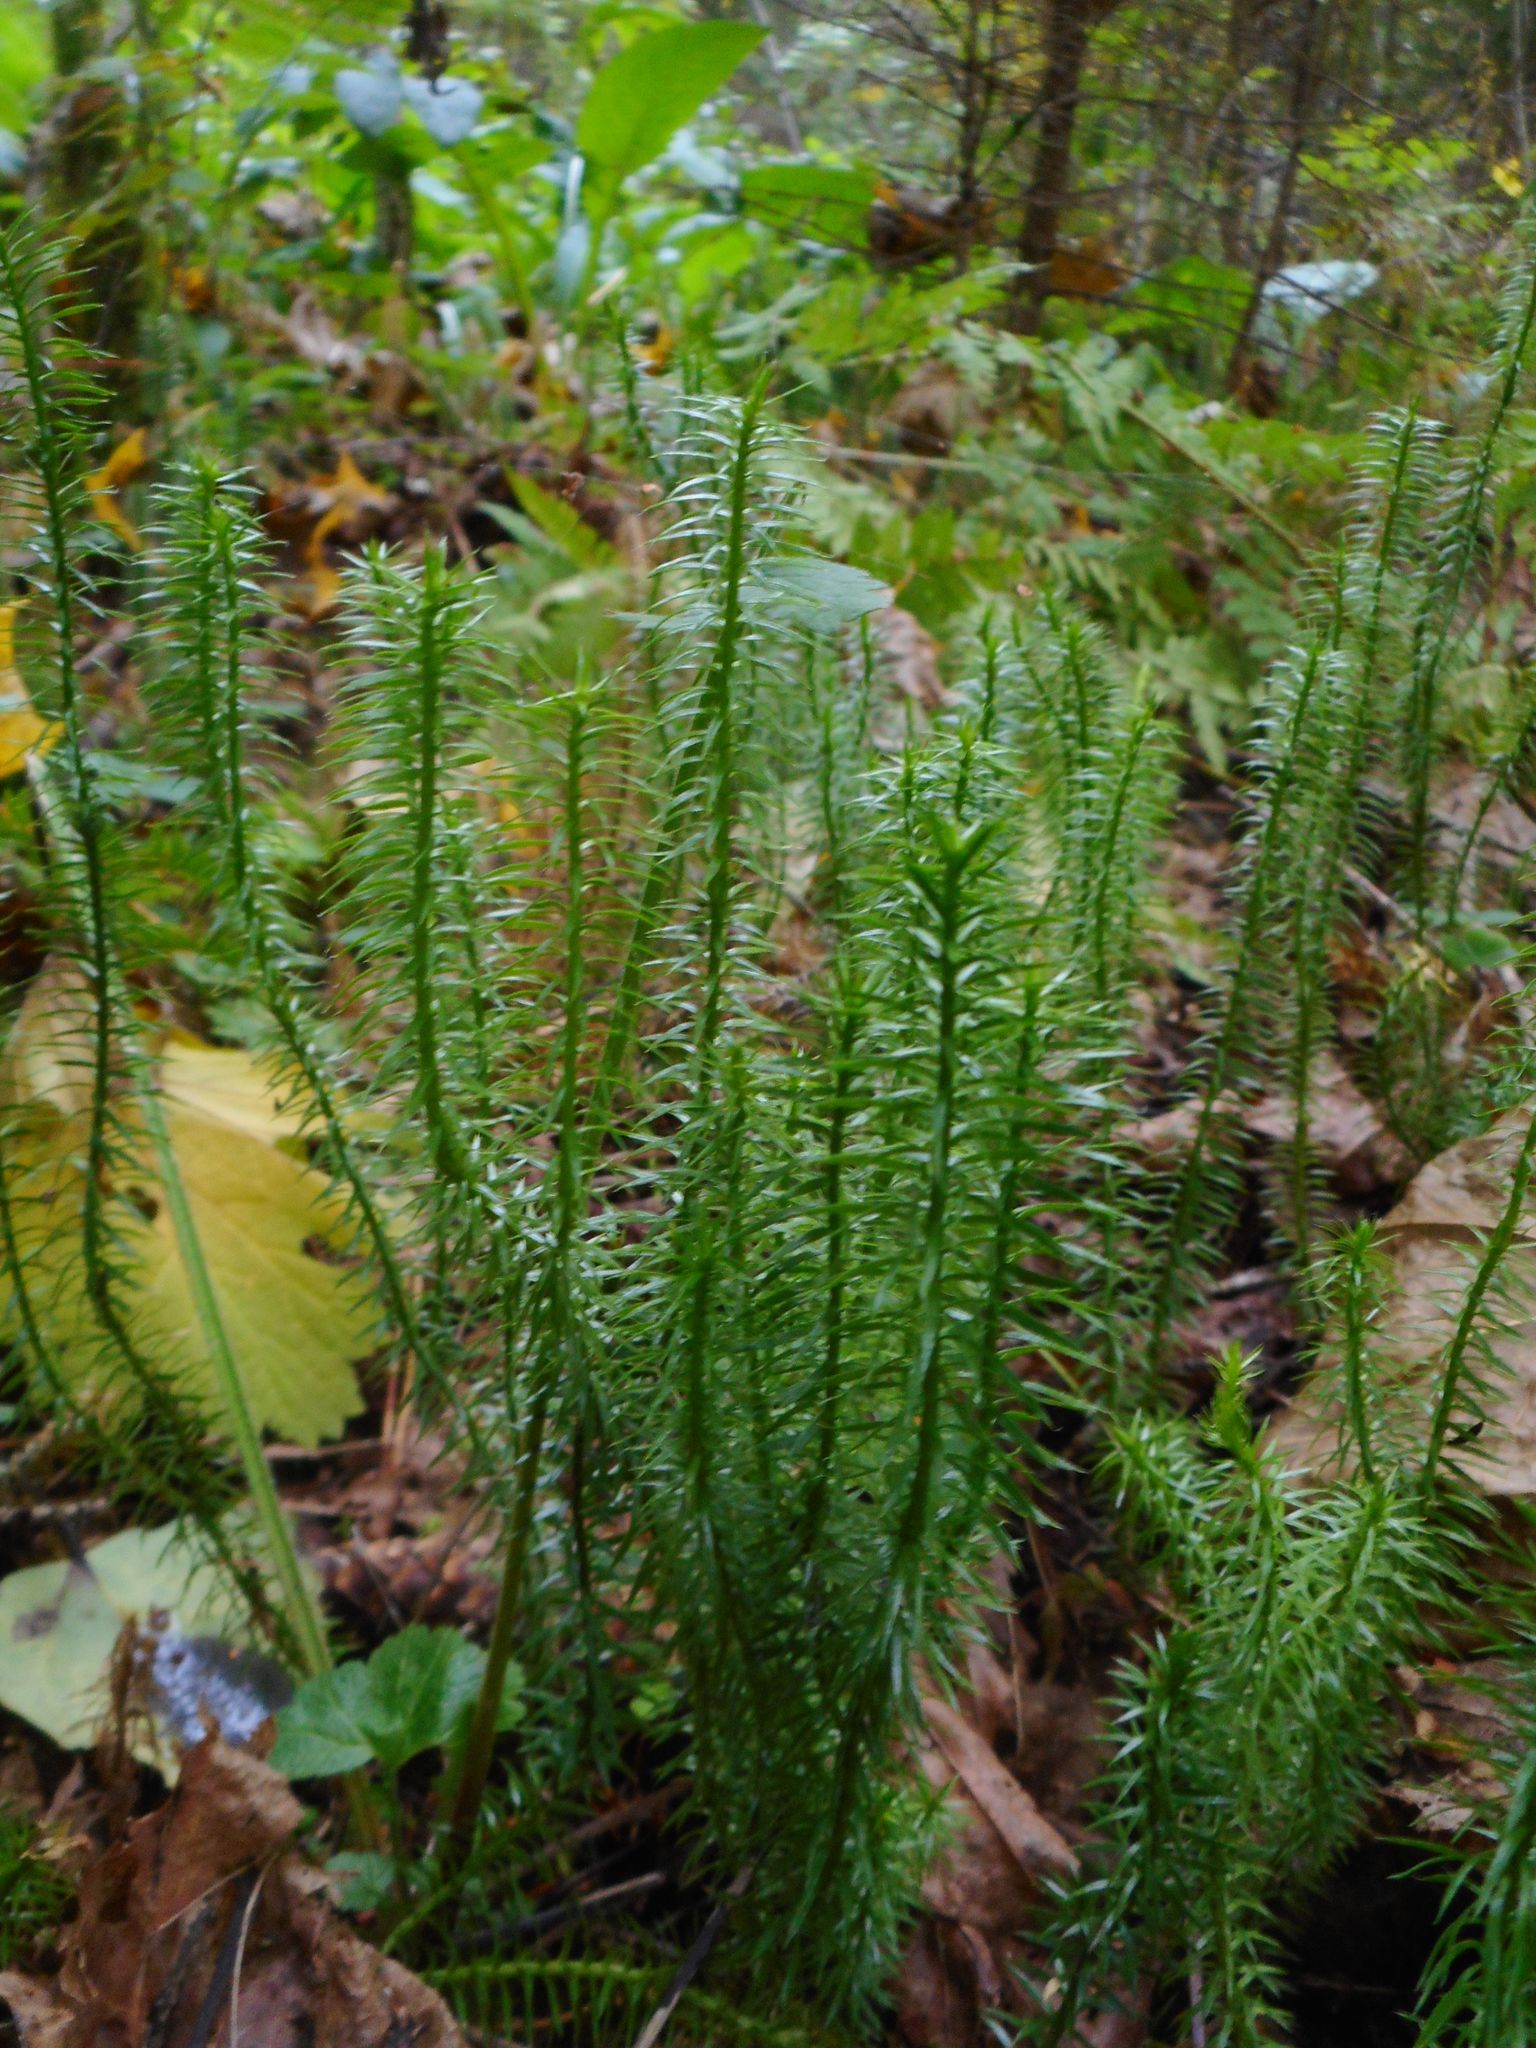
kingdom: Plantae
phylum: Tracheophyta
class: Lycopodiopsida
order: Lycopodiales
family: Lycopodiaceae
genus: Spinulum
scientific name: Spinulum annotinum
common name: Interrupted club-moss
